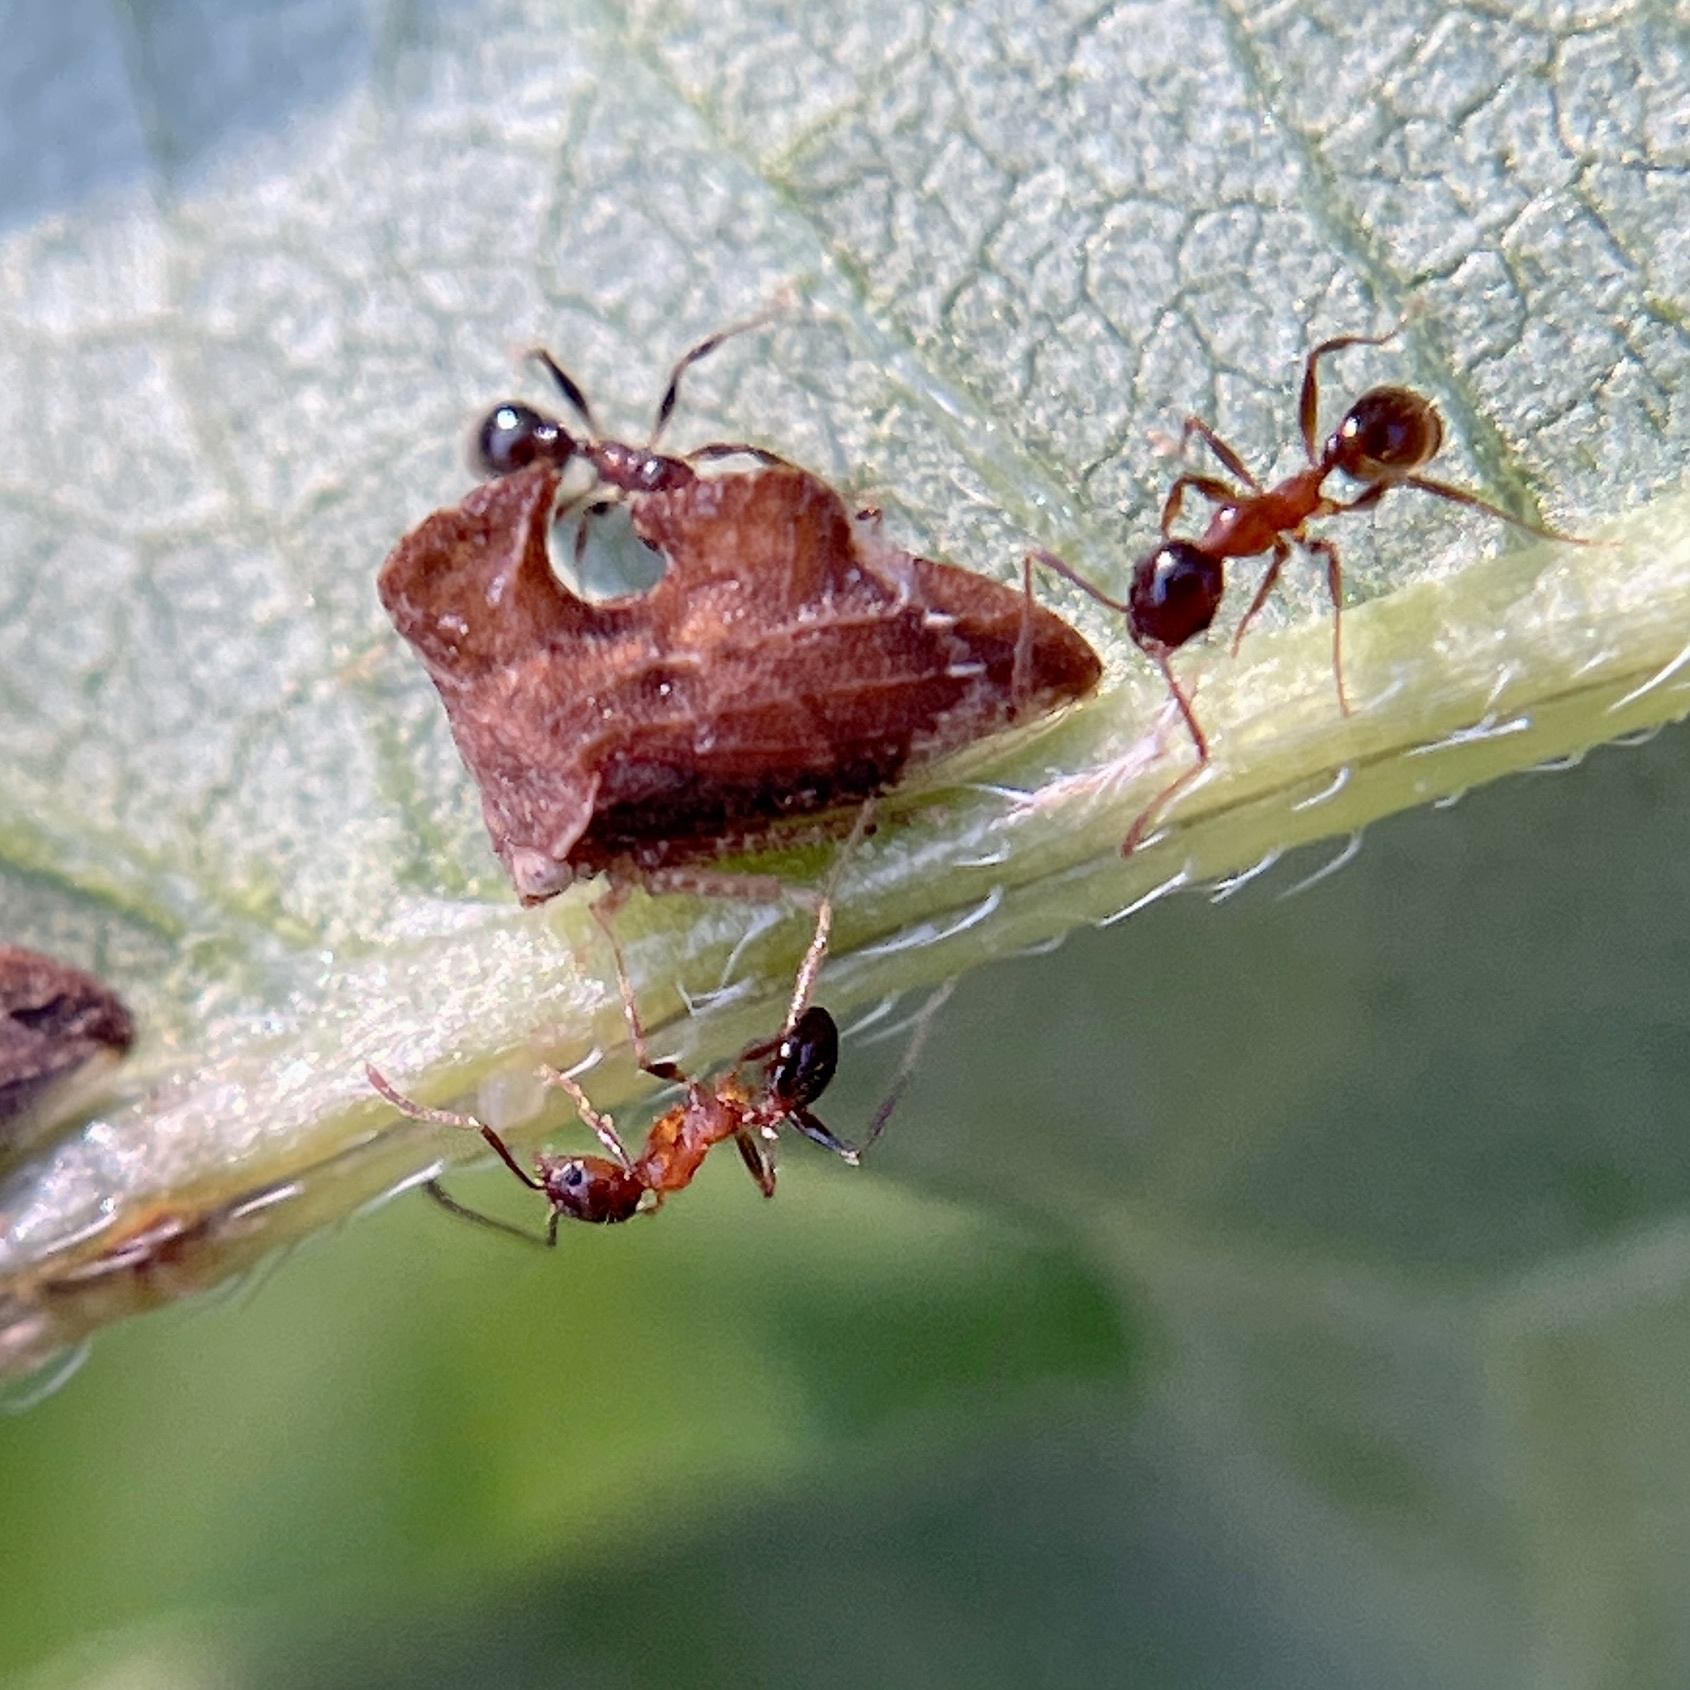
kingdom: Animalia
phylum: Arthropoda
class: Insecta
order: Hemiptera
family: Membracidae
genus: Entylia
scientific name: Entylia carinata
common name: Keeled treehopper
